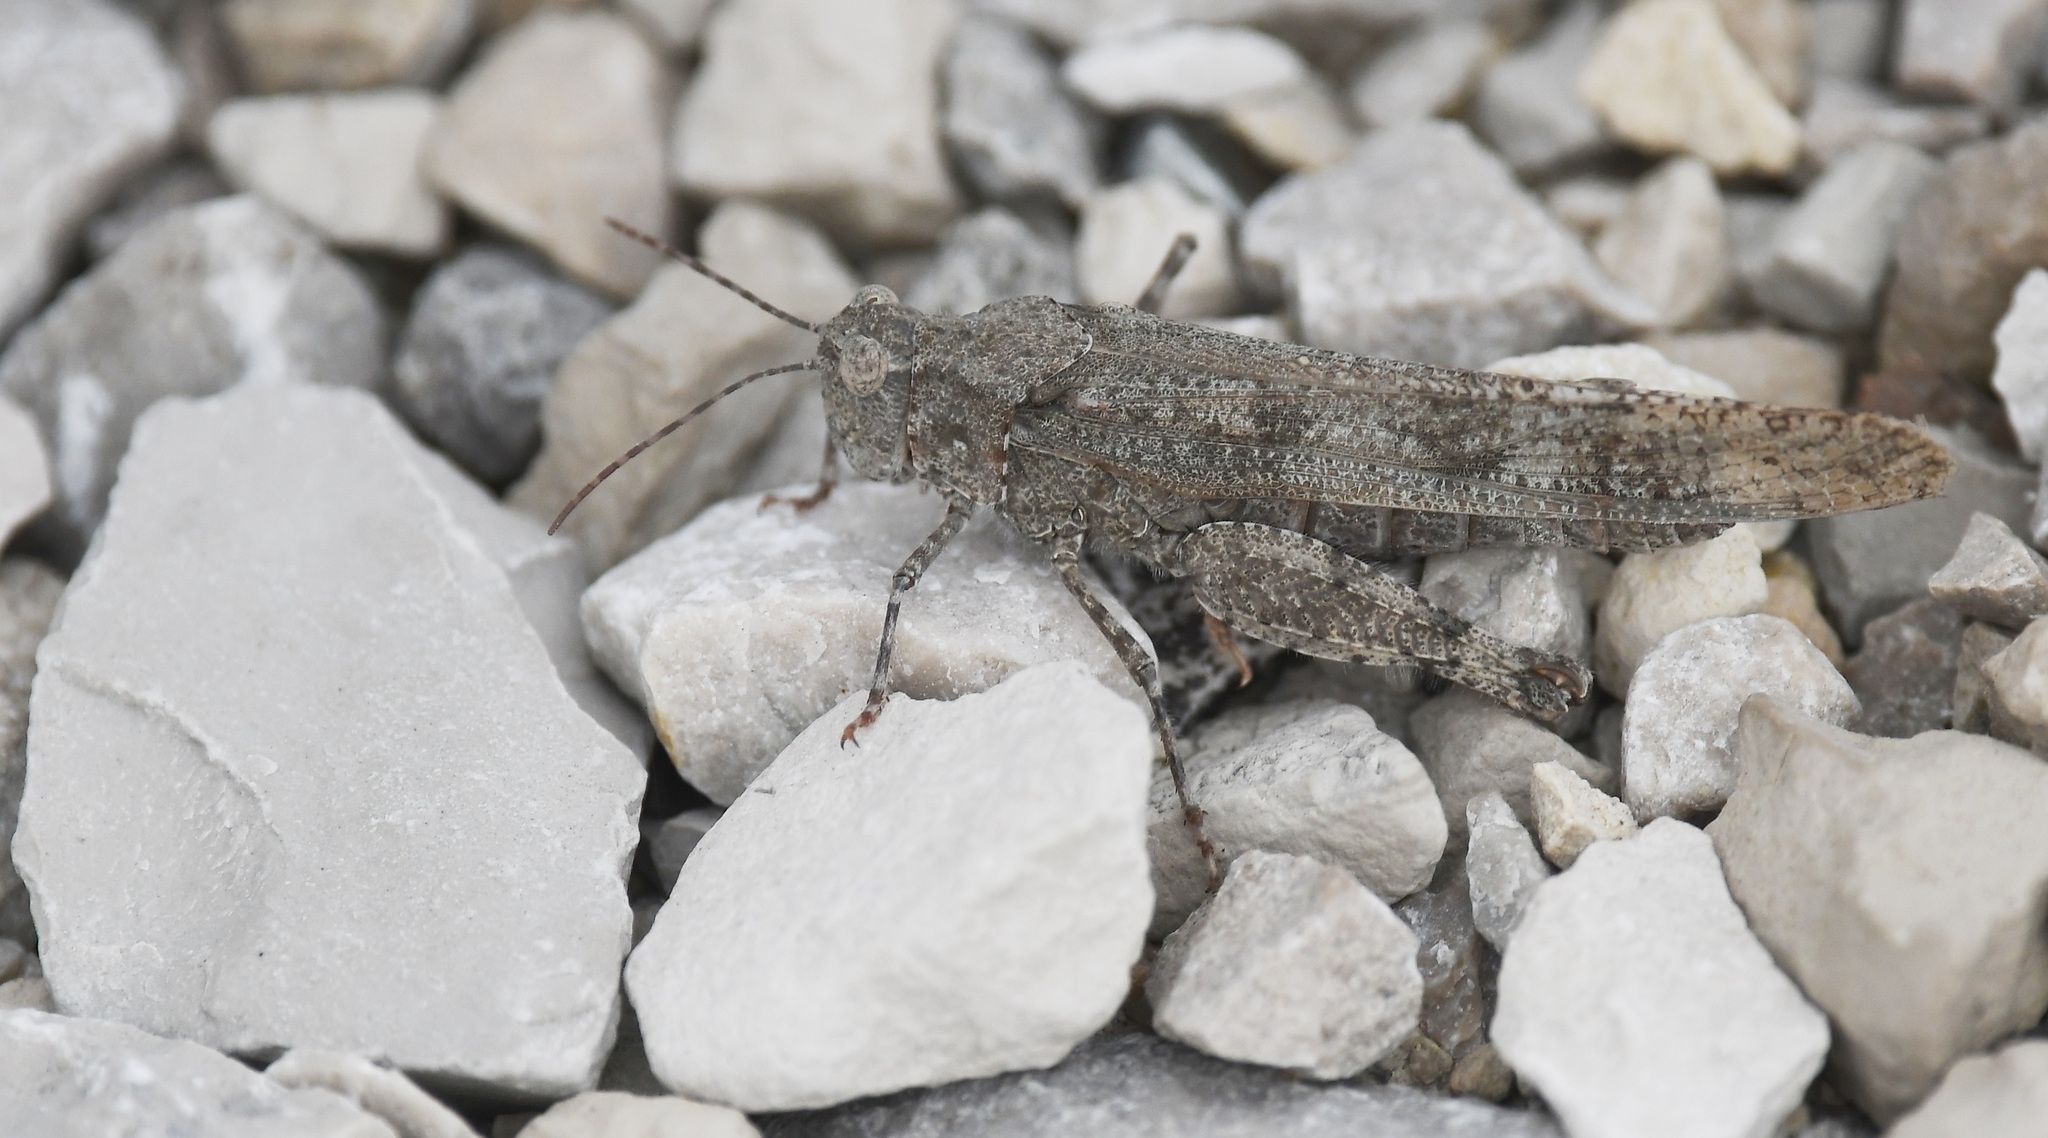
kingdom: Animalia
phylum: Arthropoda
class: Insecta
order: Orthoptera
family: Acrididae
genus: Trimerotropis
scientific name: Trimerotropis maritima
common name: Seaside locust
